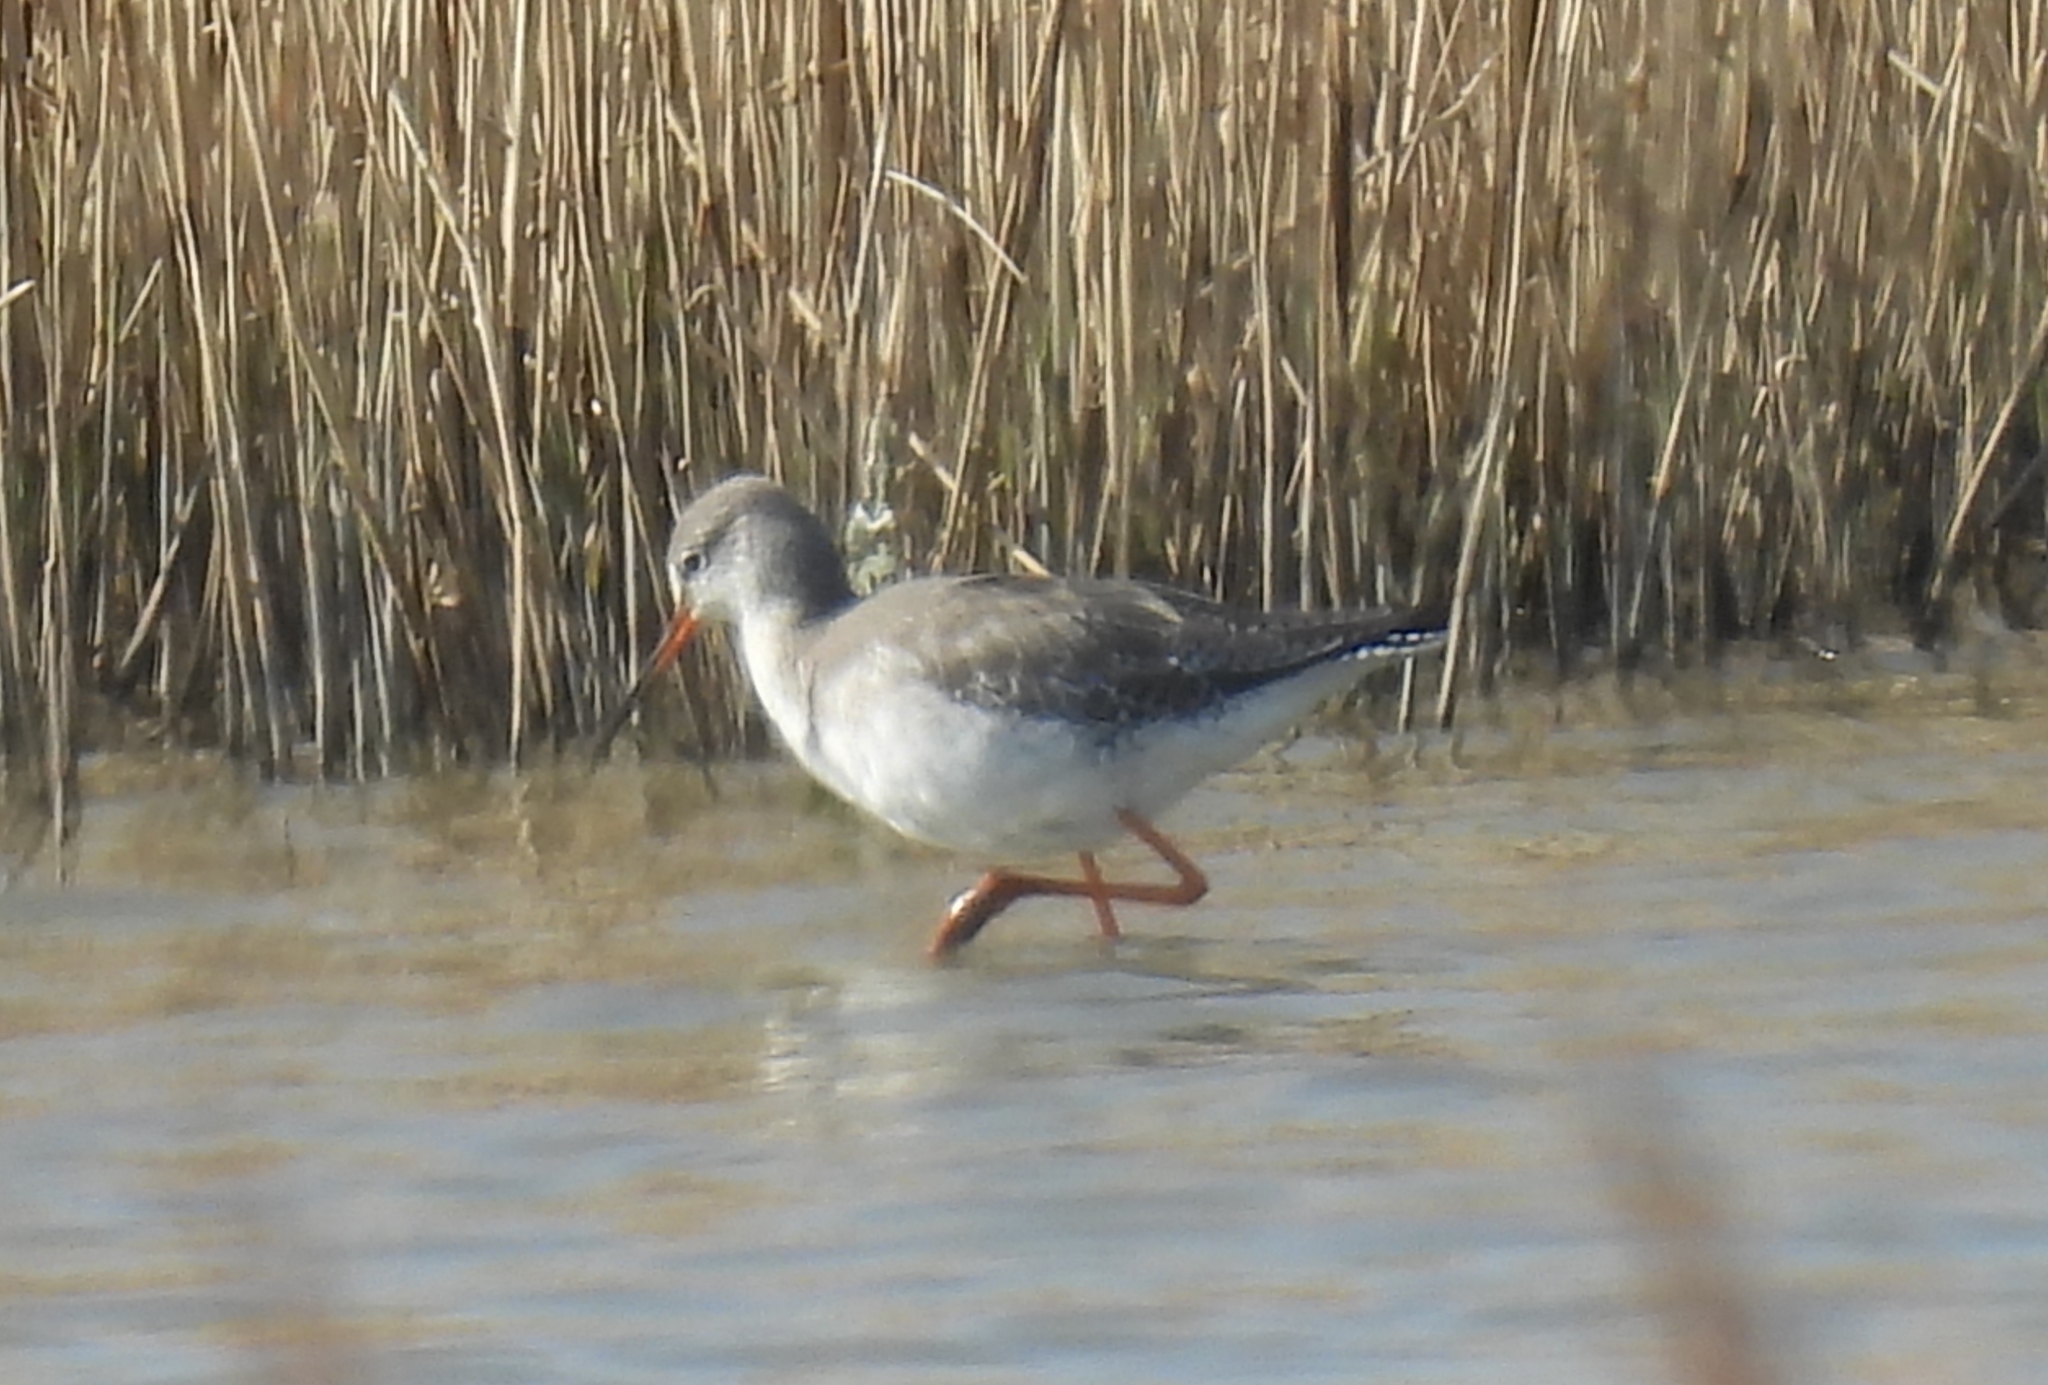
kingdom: Animalia
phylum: Chordata
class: Aves
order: Charadriiformes
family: Scolopacidae
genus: Tringa
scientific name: Tringa totanus
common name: Common redshank
